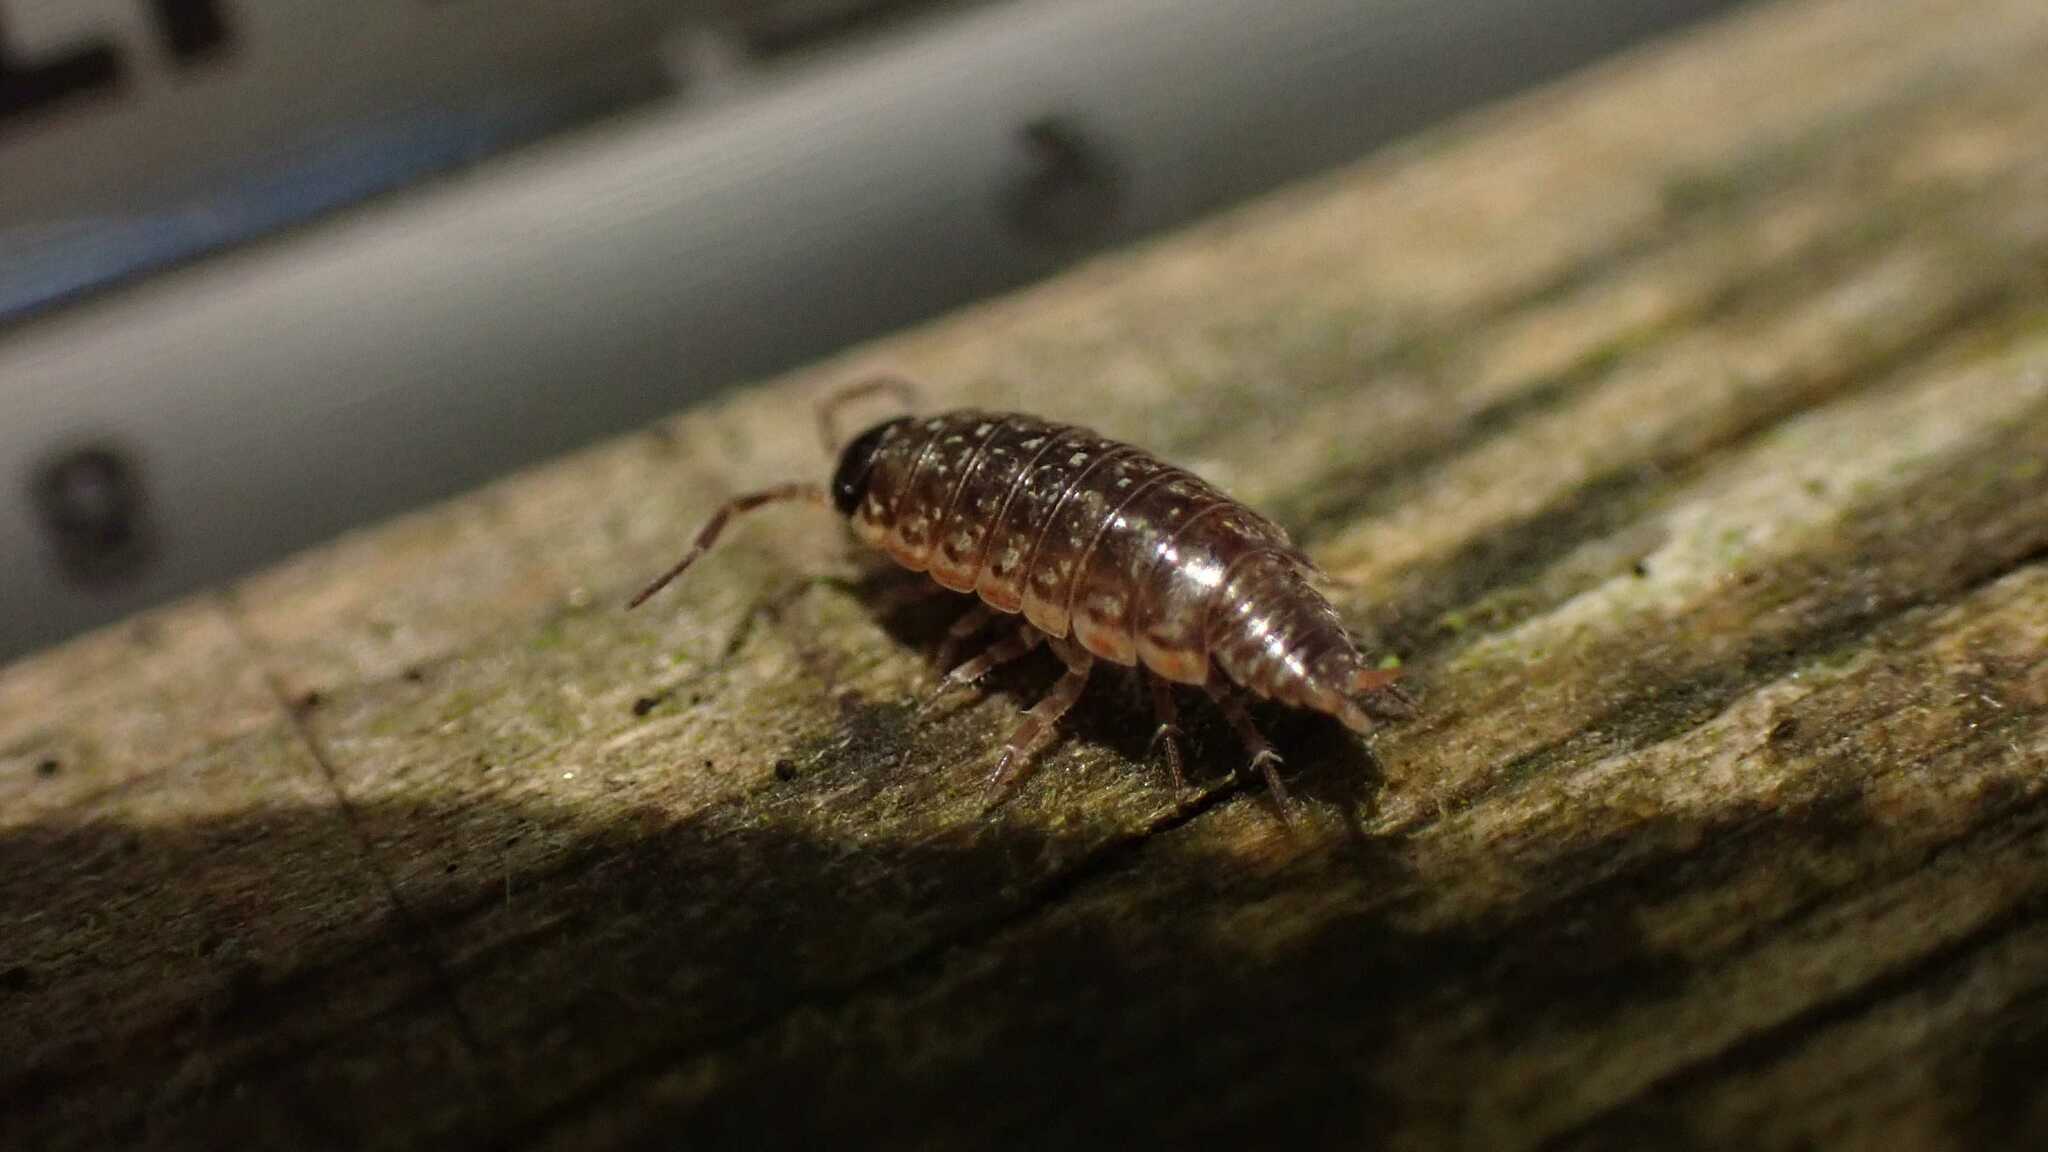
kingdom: Animalia
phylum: Arthropoda
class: Malacostraca
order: Isopoda
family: Philosciidae
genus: Philoscia
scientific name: Philoscia muscorum
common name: Common striped woodlouse
